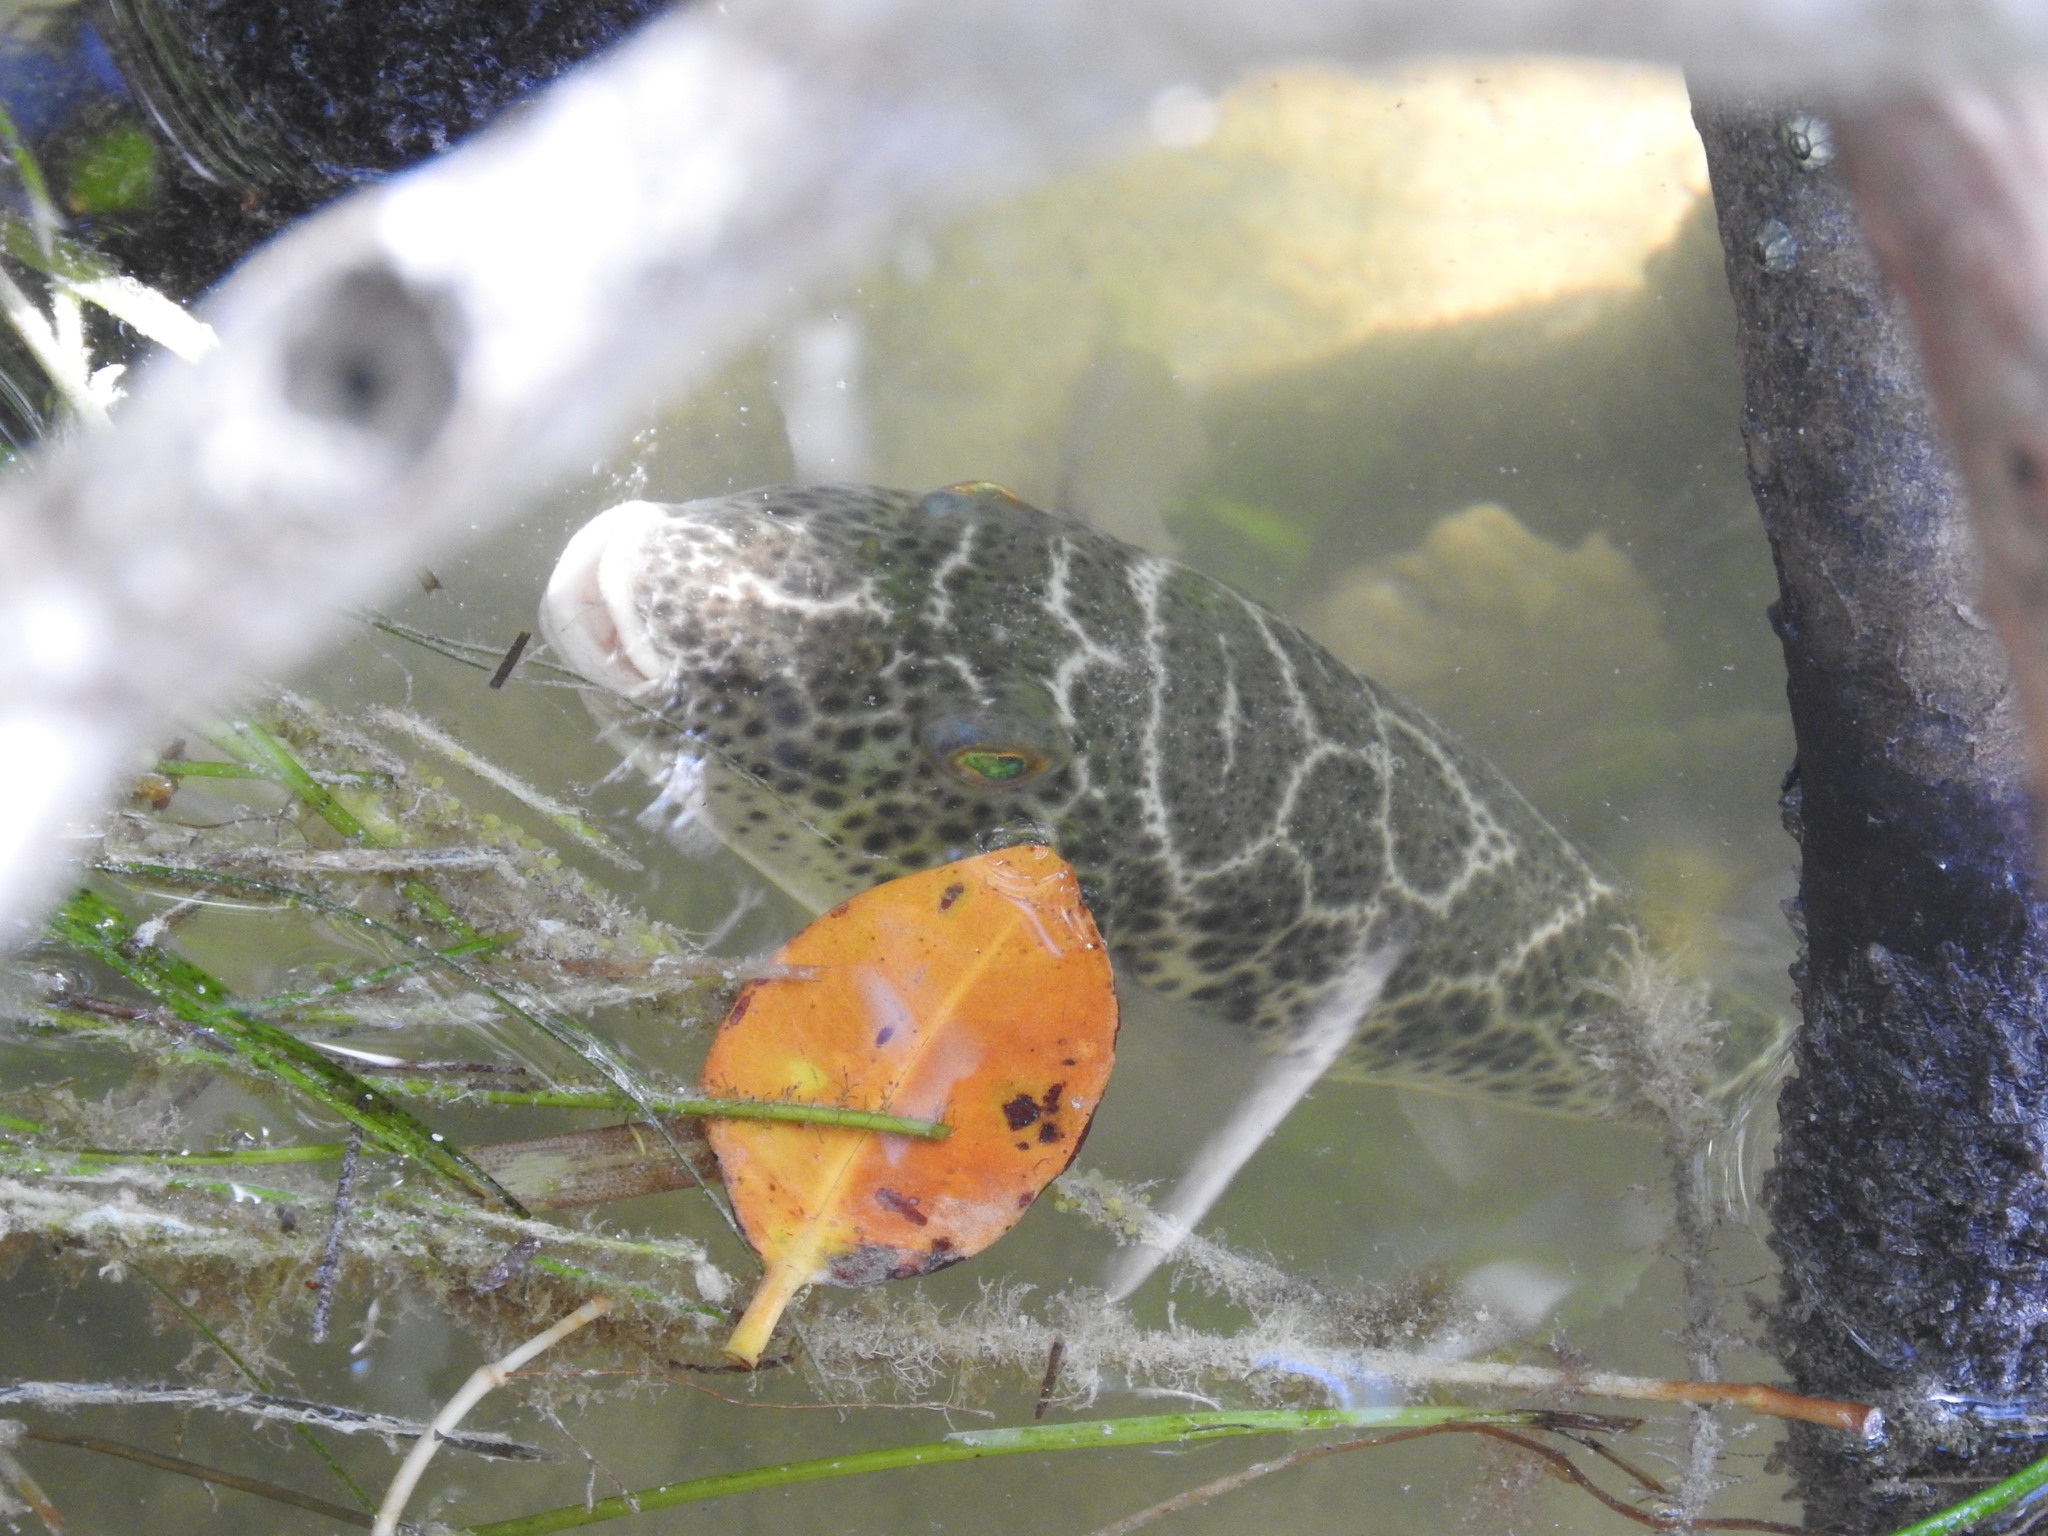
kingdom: Animalia
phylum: Chordata
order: Tetraodontiformes
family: Tetraodontidae
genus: Sphoeroides
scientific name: Sphoeroides testudineus
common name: Checkered puffer
